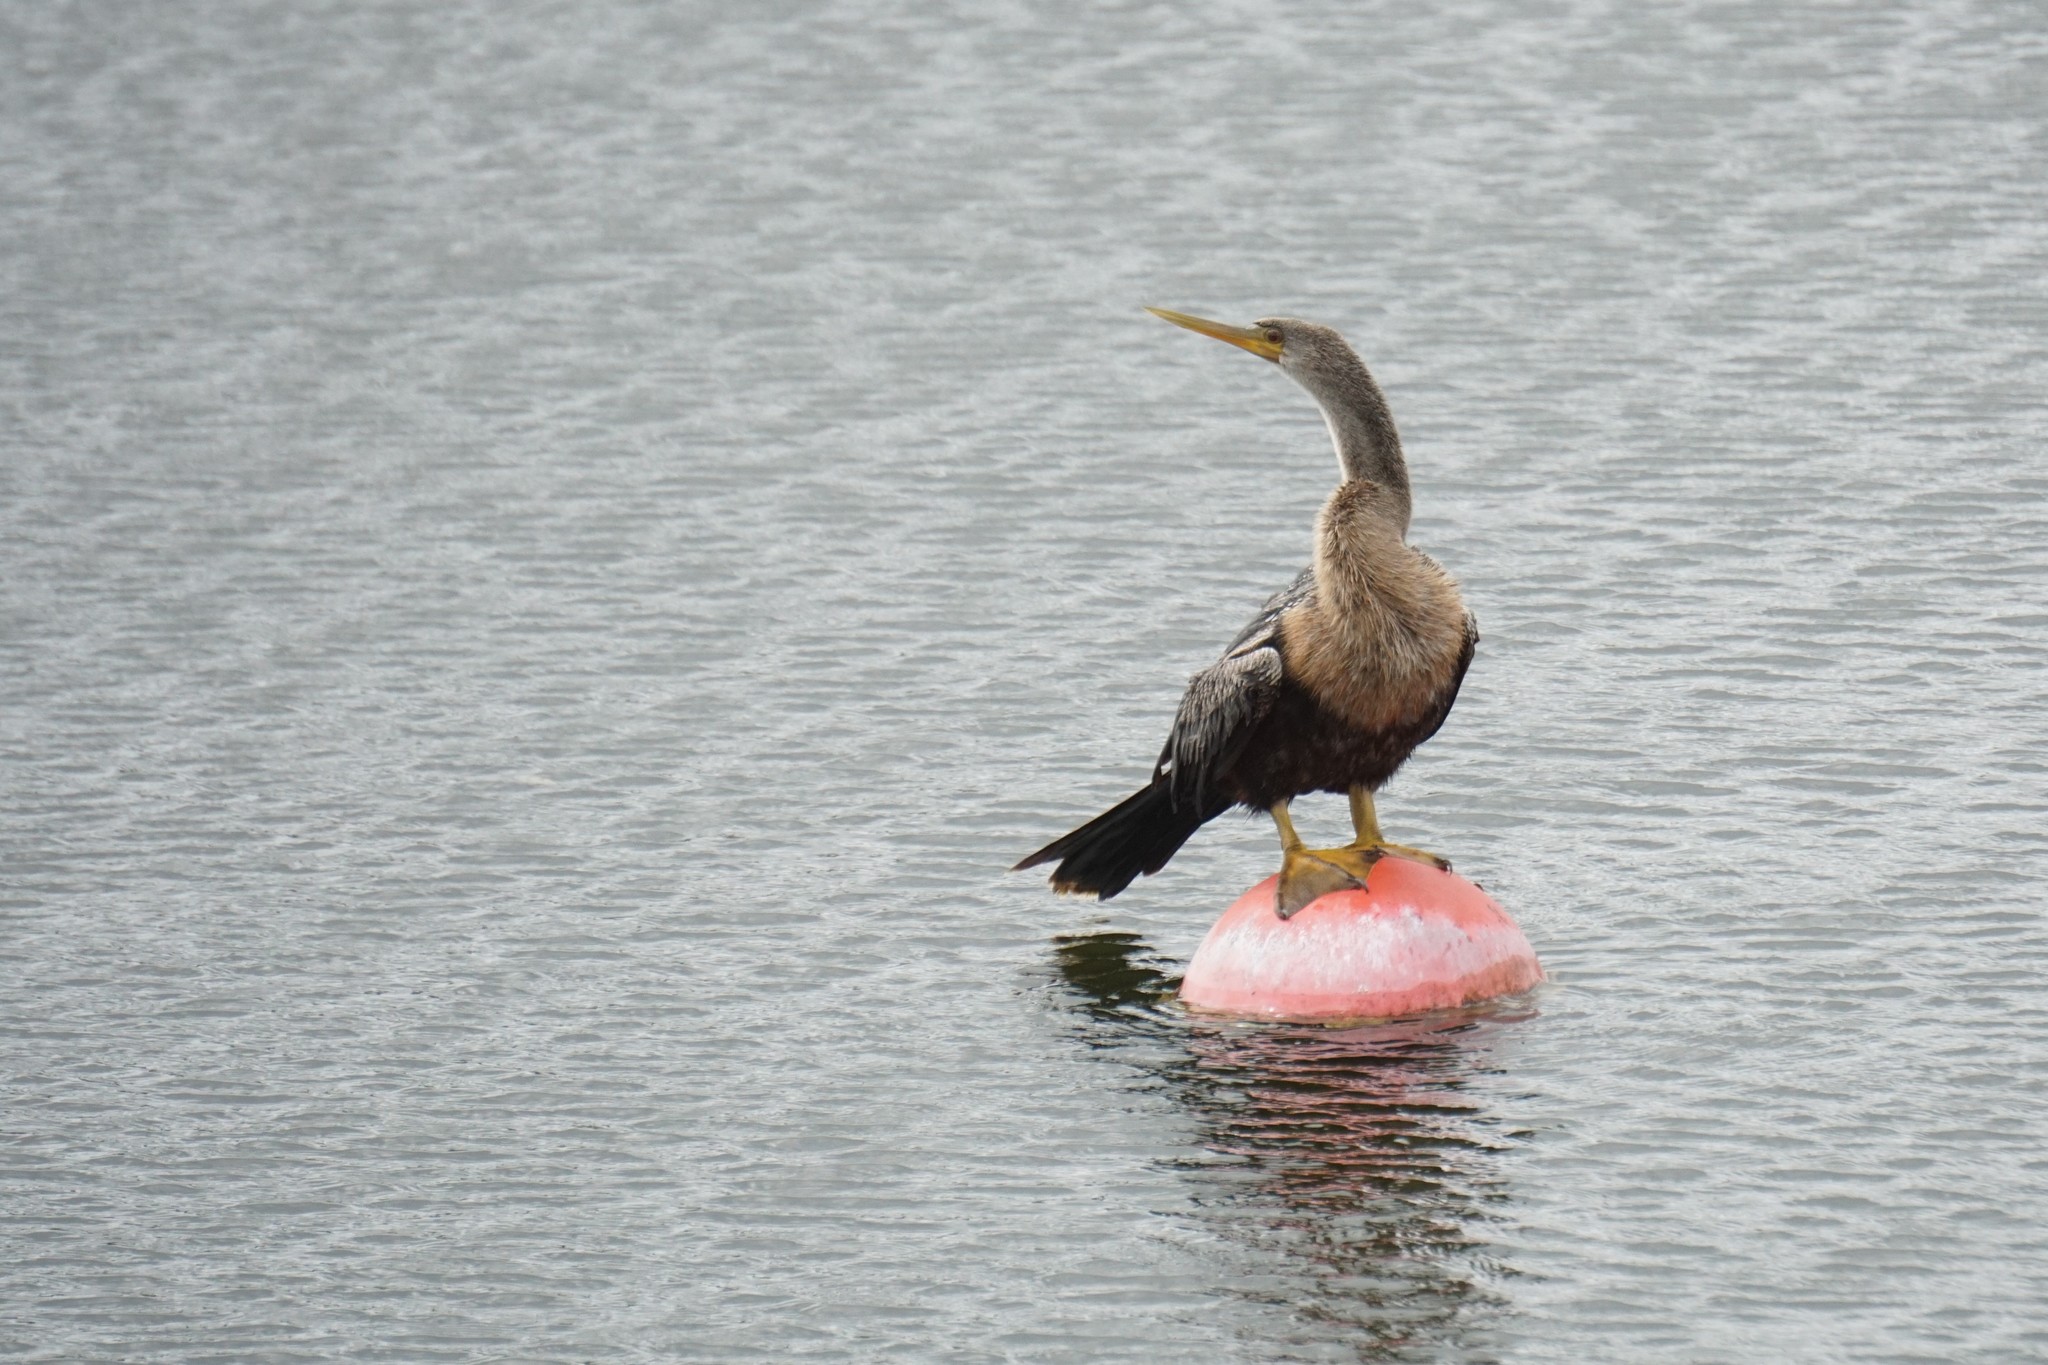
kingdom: Animalia
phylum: Chordata
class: Aves
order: Suliformes
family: Anhingidae
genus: Anhinga
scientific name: Anhinga anhinga
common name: Anhinga
